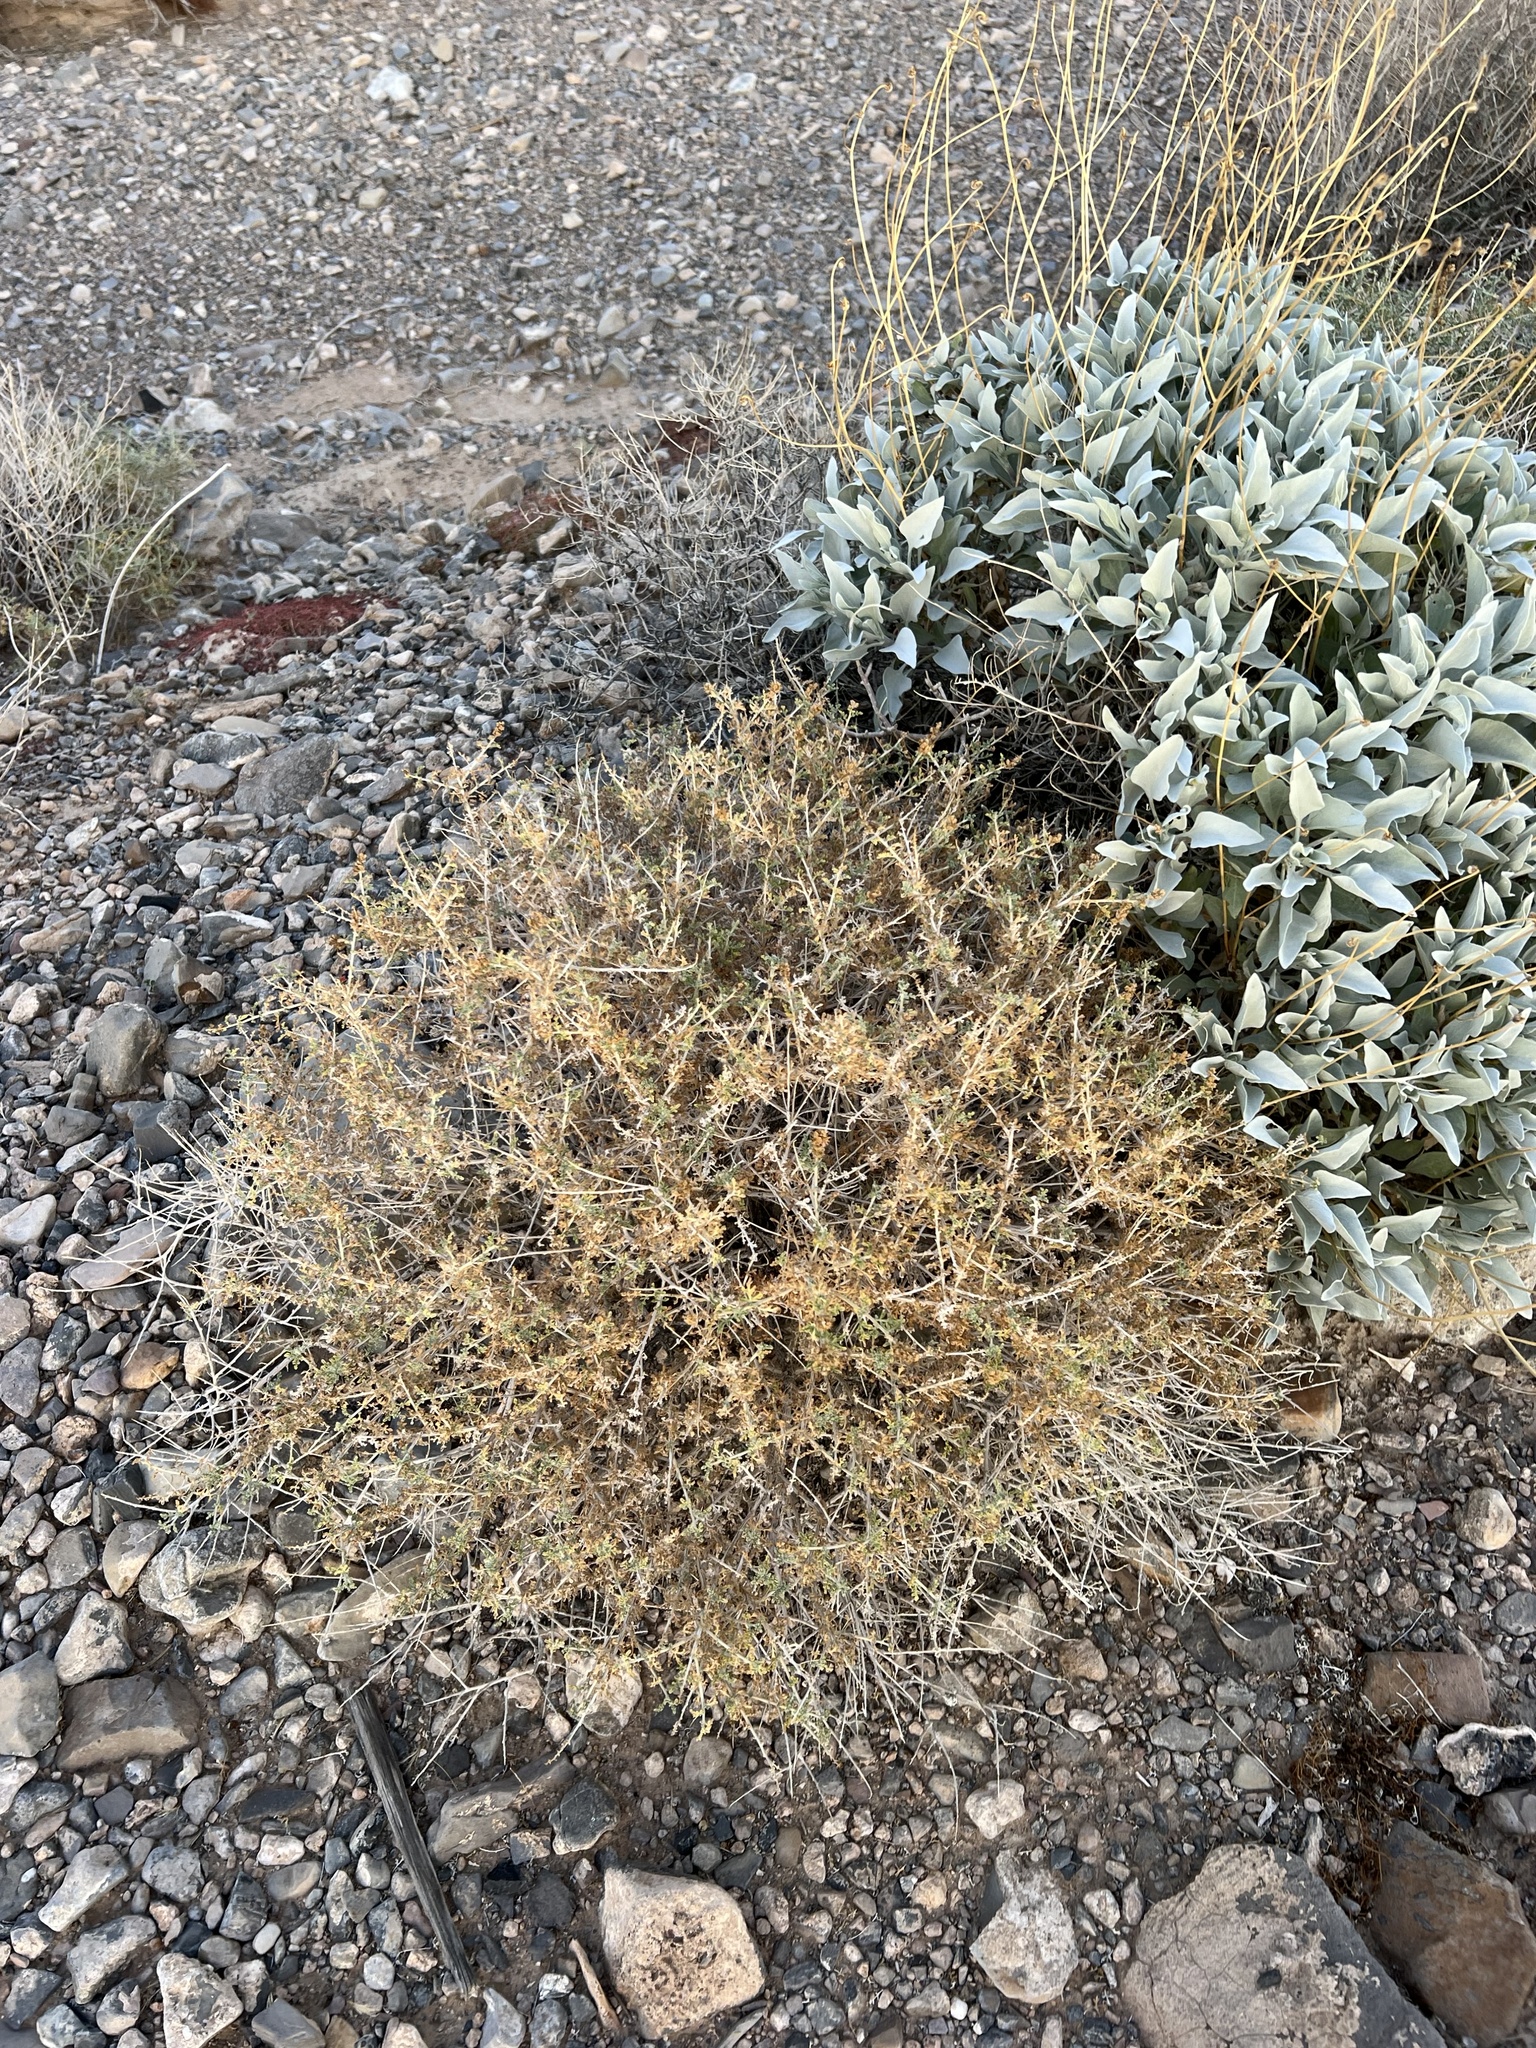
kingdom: Plantae
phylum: Tracheophyta
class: Magnoliopsida
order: Asterales
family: Asteraceae
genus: Ambrosia
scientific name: Ambrosia dumosa
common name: Bur-sage
